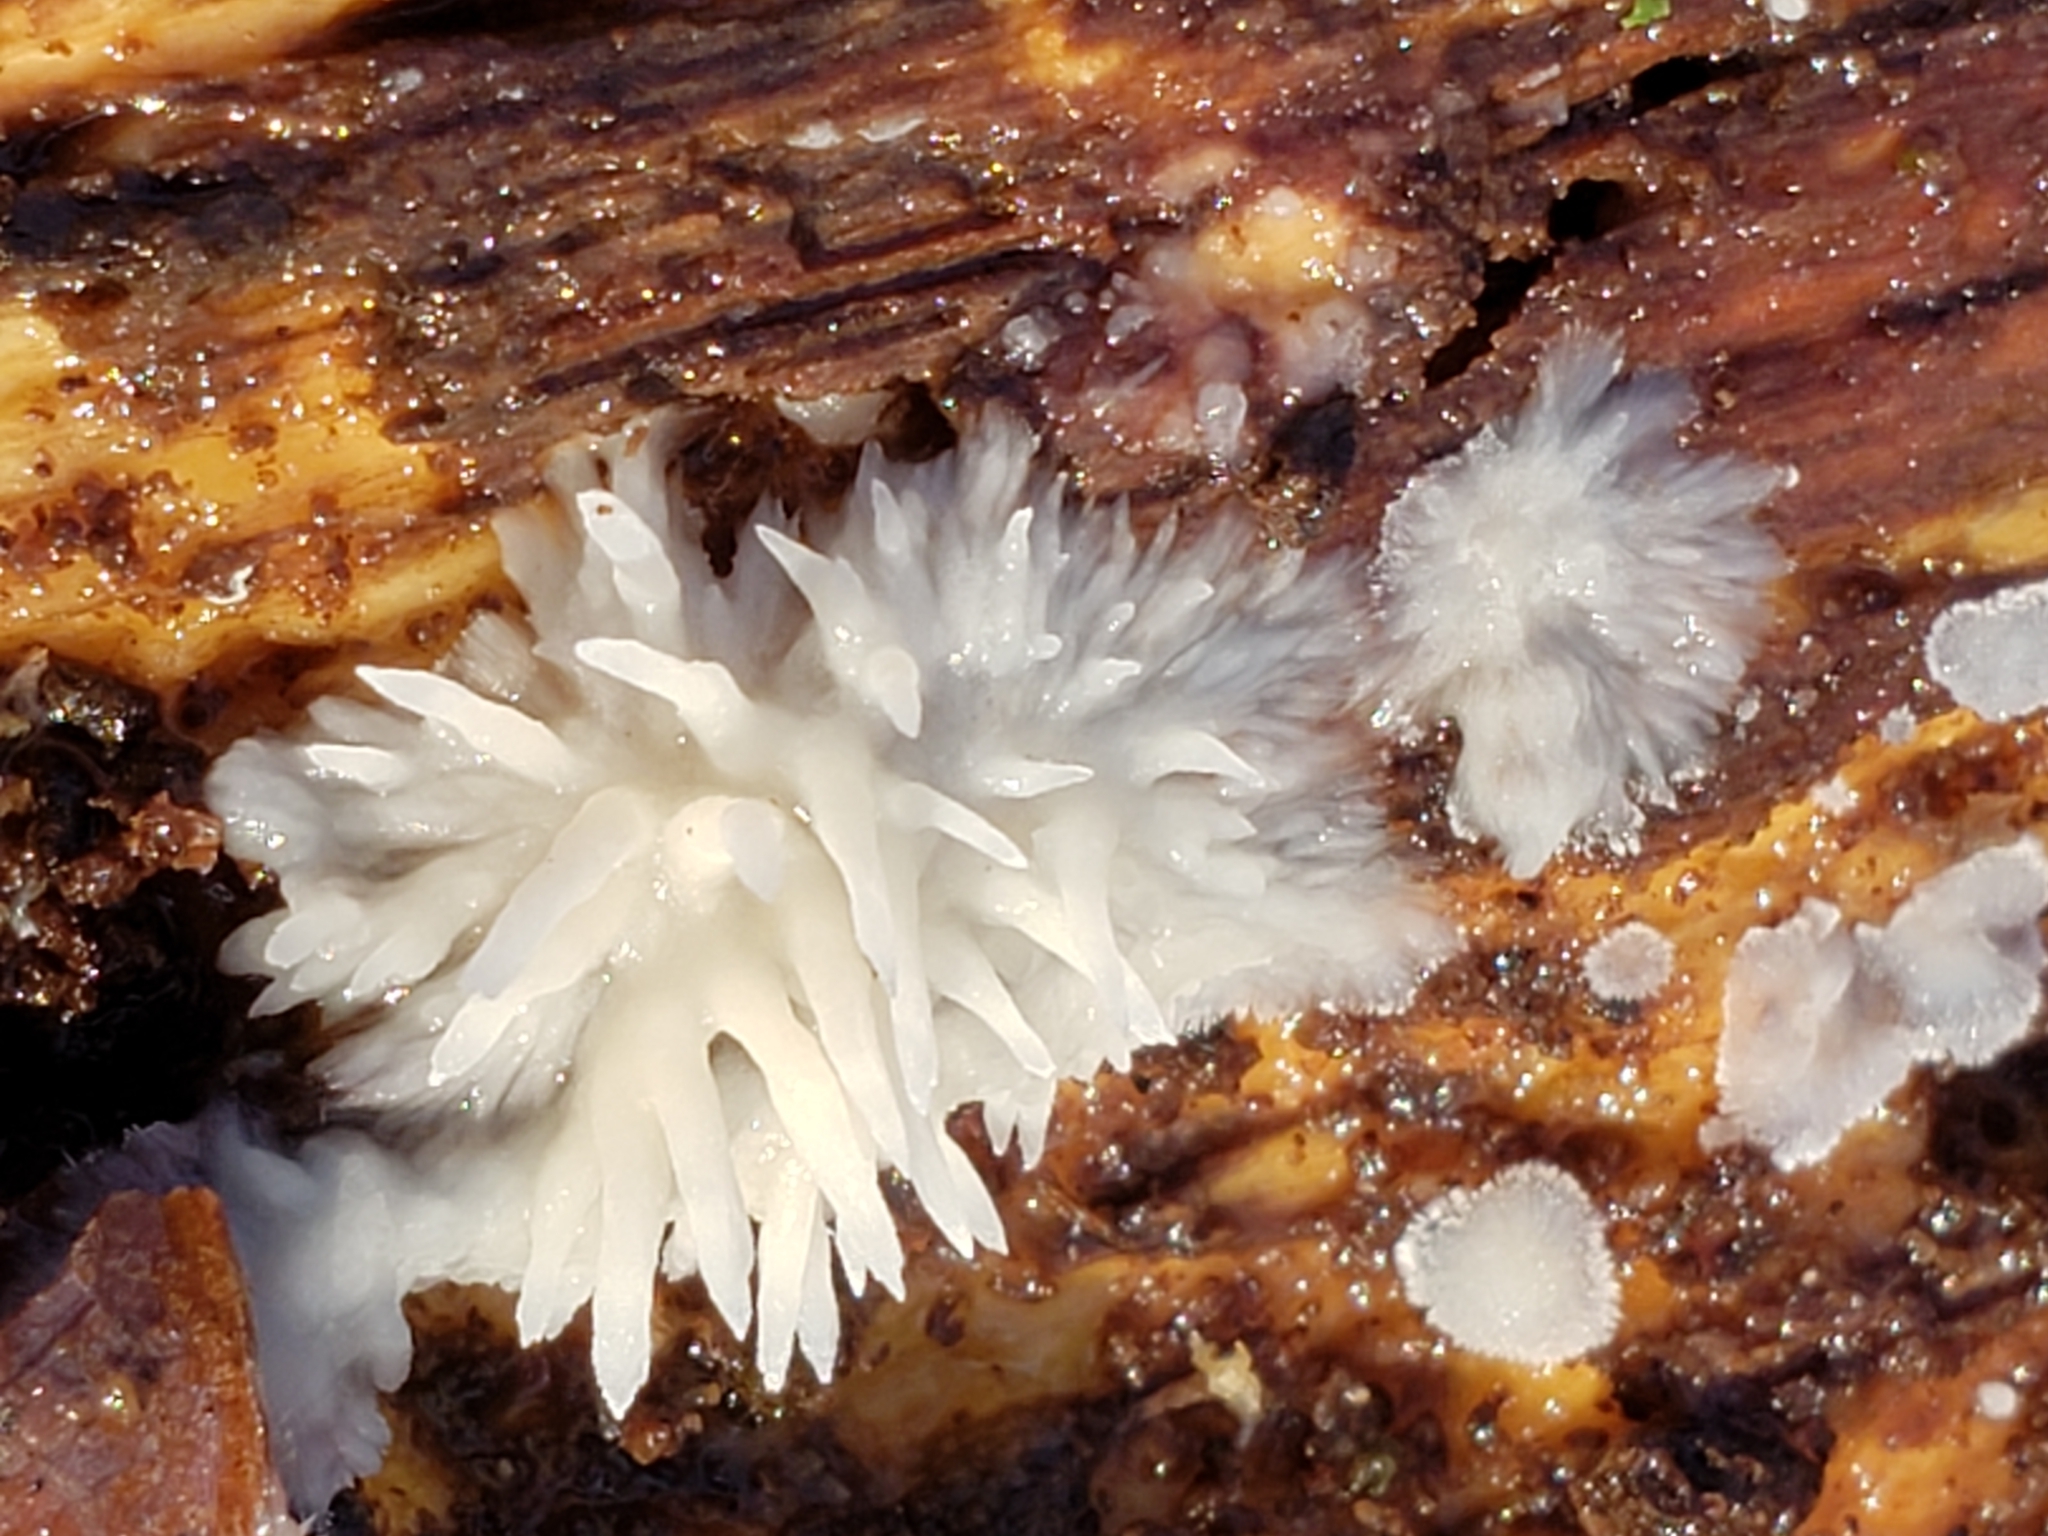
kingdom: Fungi
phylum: Basidiomycota
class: Agaricomycetes
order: Agaricales
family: Radulomycetaceae
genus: Radulomyces
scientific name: Radulomyces copelandii
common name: Asian beauty
